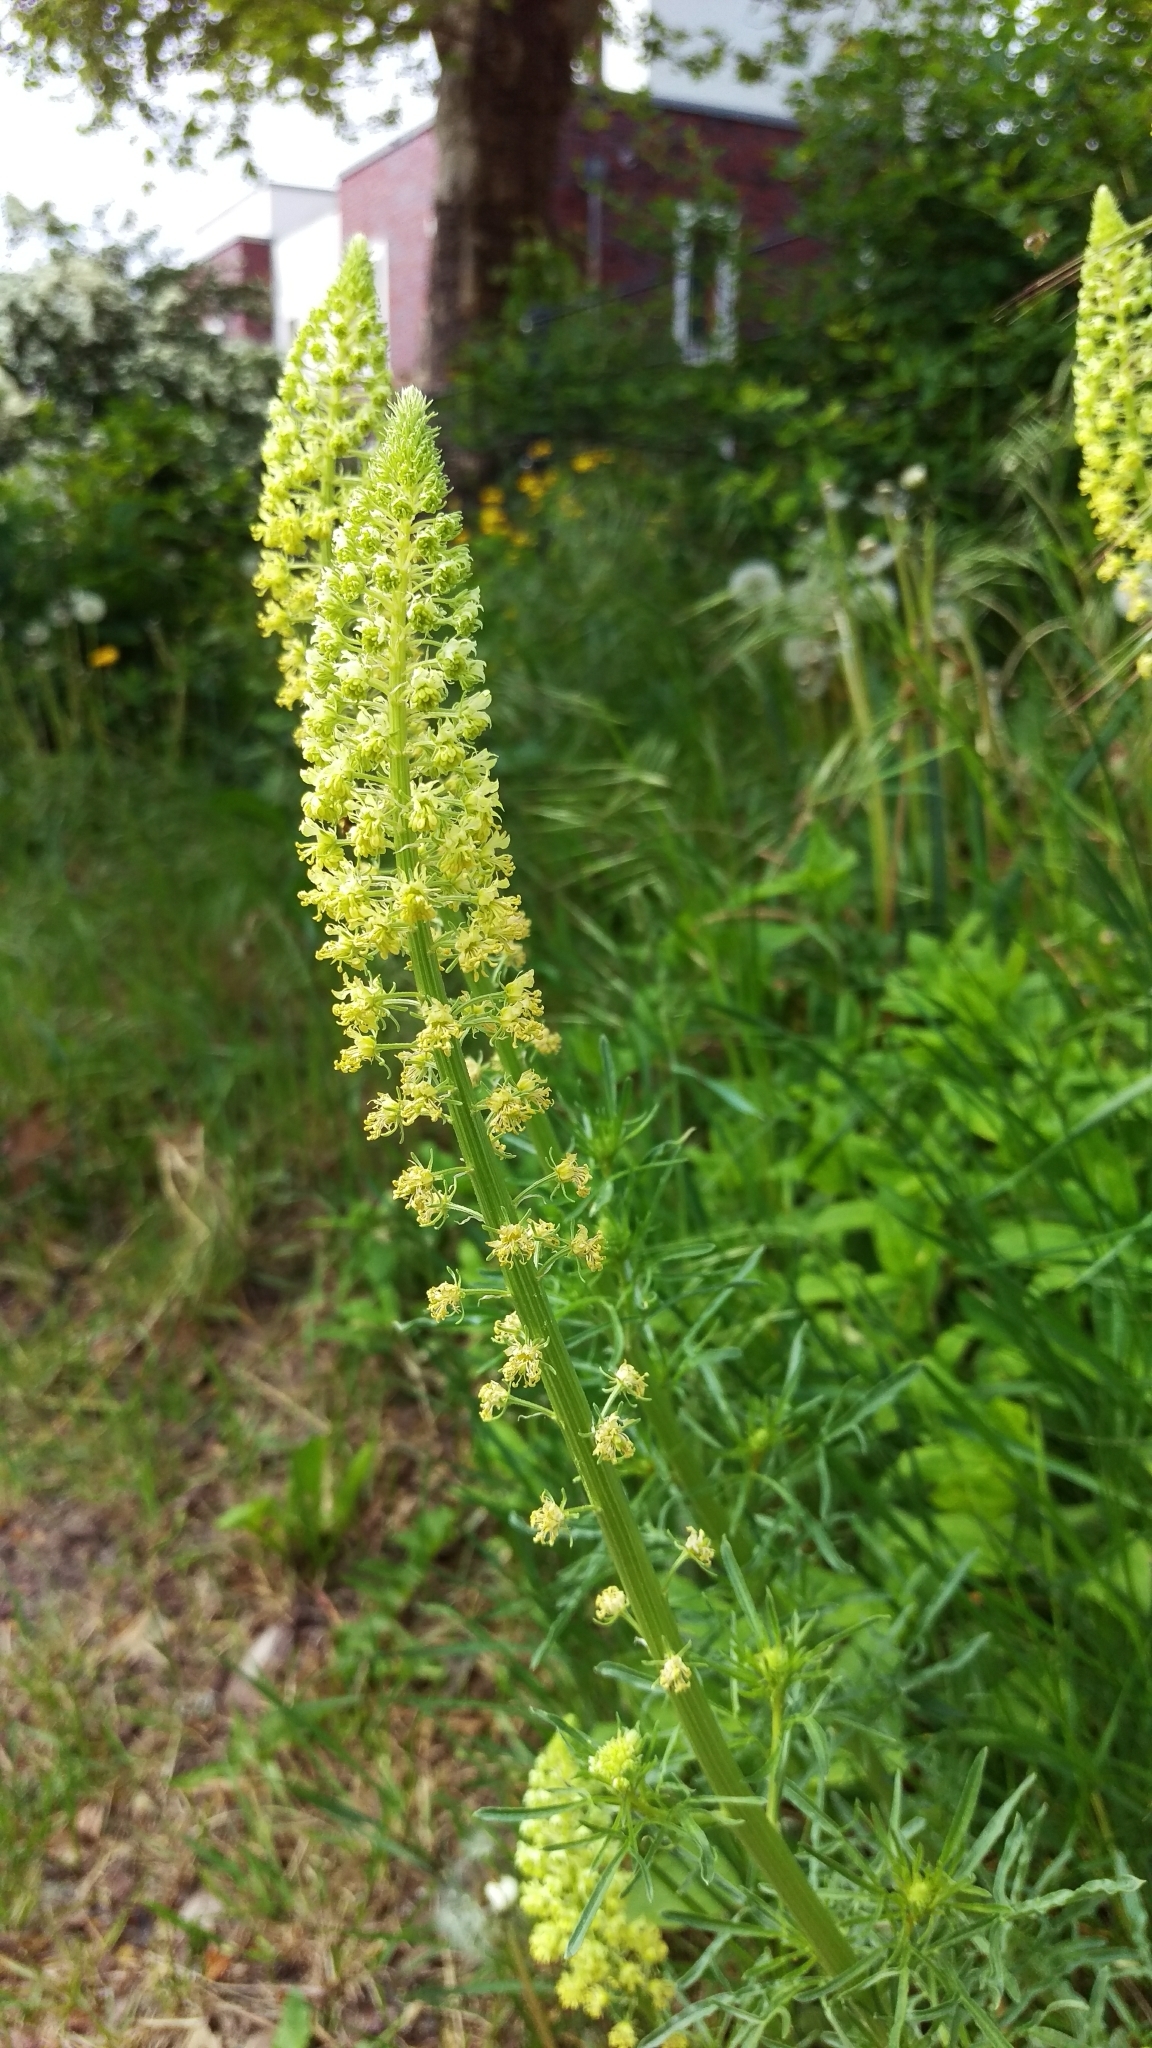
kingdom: Plantae
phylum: Tracheophyta
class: Magnoliopsida
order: Brassicales
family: Resedaceae
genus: Reseda
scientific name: Reseda lutea
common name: Wild mignonette
